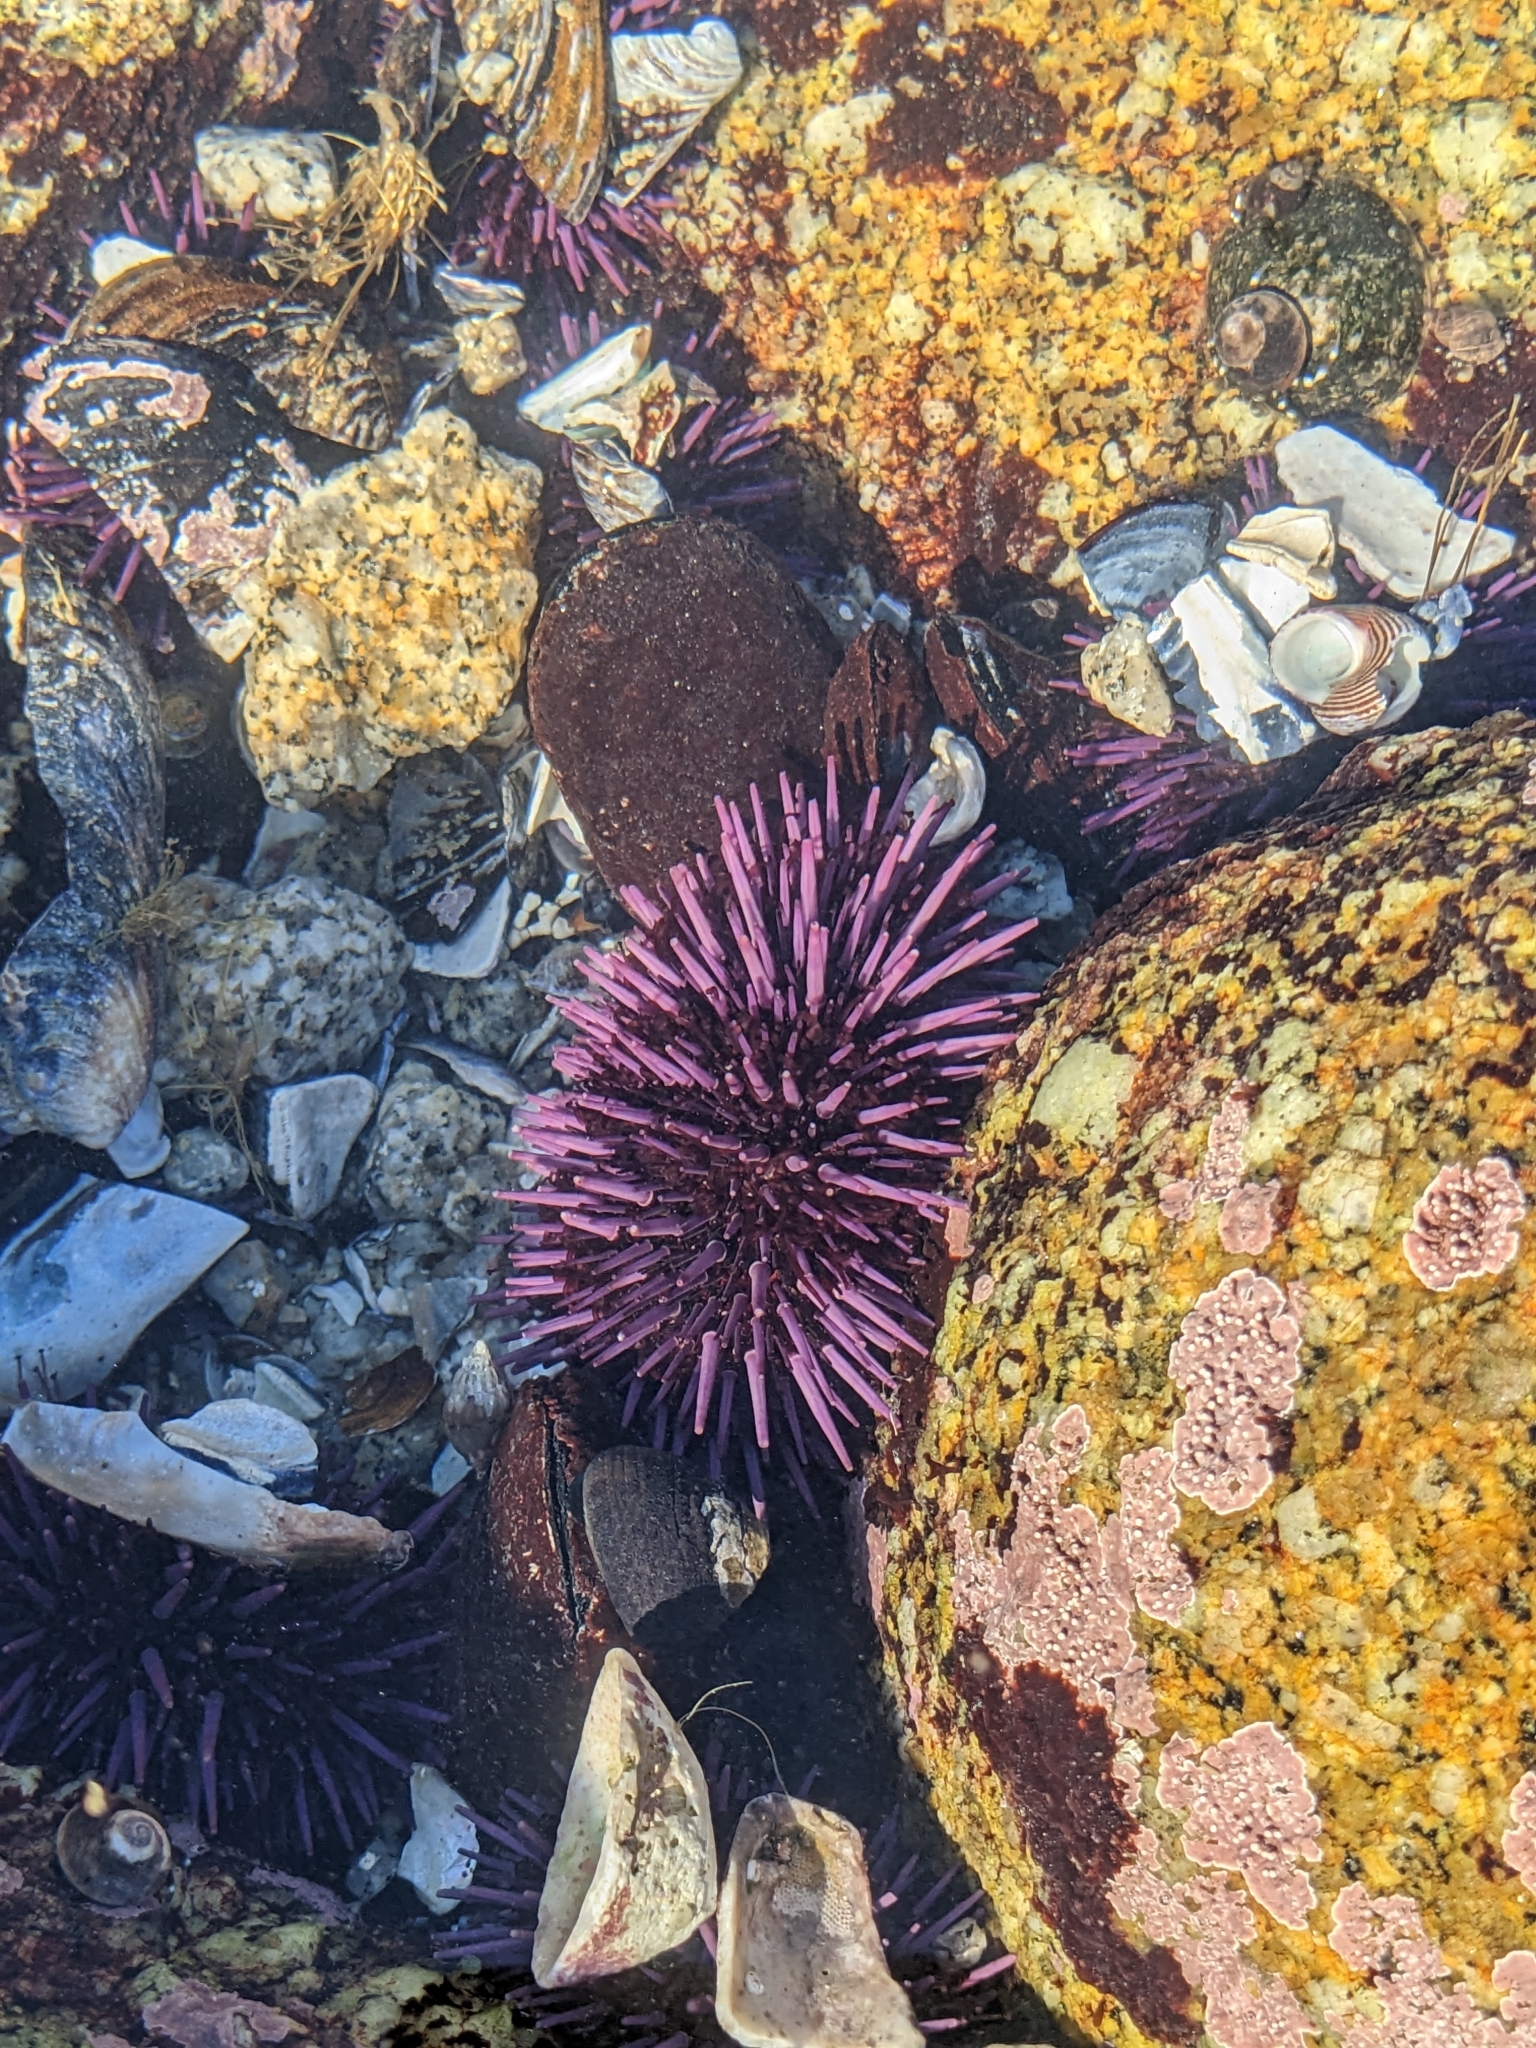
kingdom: Animalia
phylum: Echinodermata
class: Echinoidea
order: Camarodonta
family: Strongylocentrotidae
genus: Strongylocentrotus
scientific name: Strongylocentrotus purpuratus
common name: Purple sea urchin
